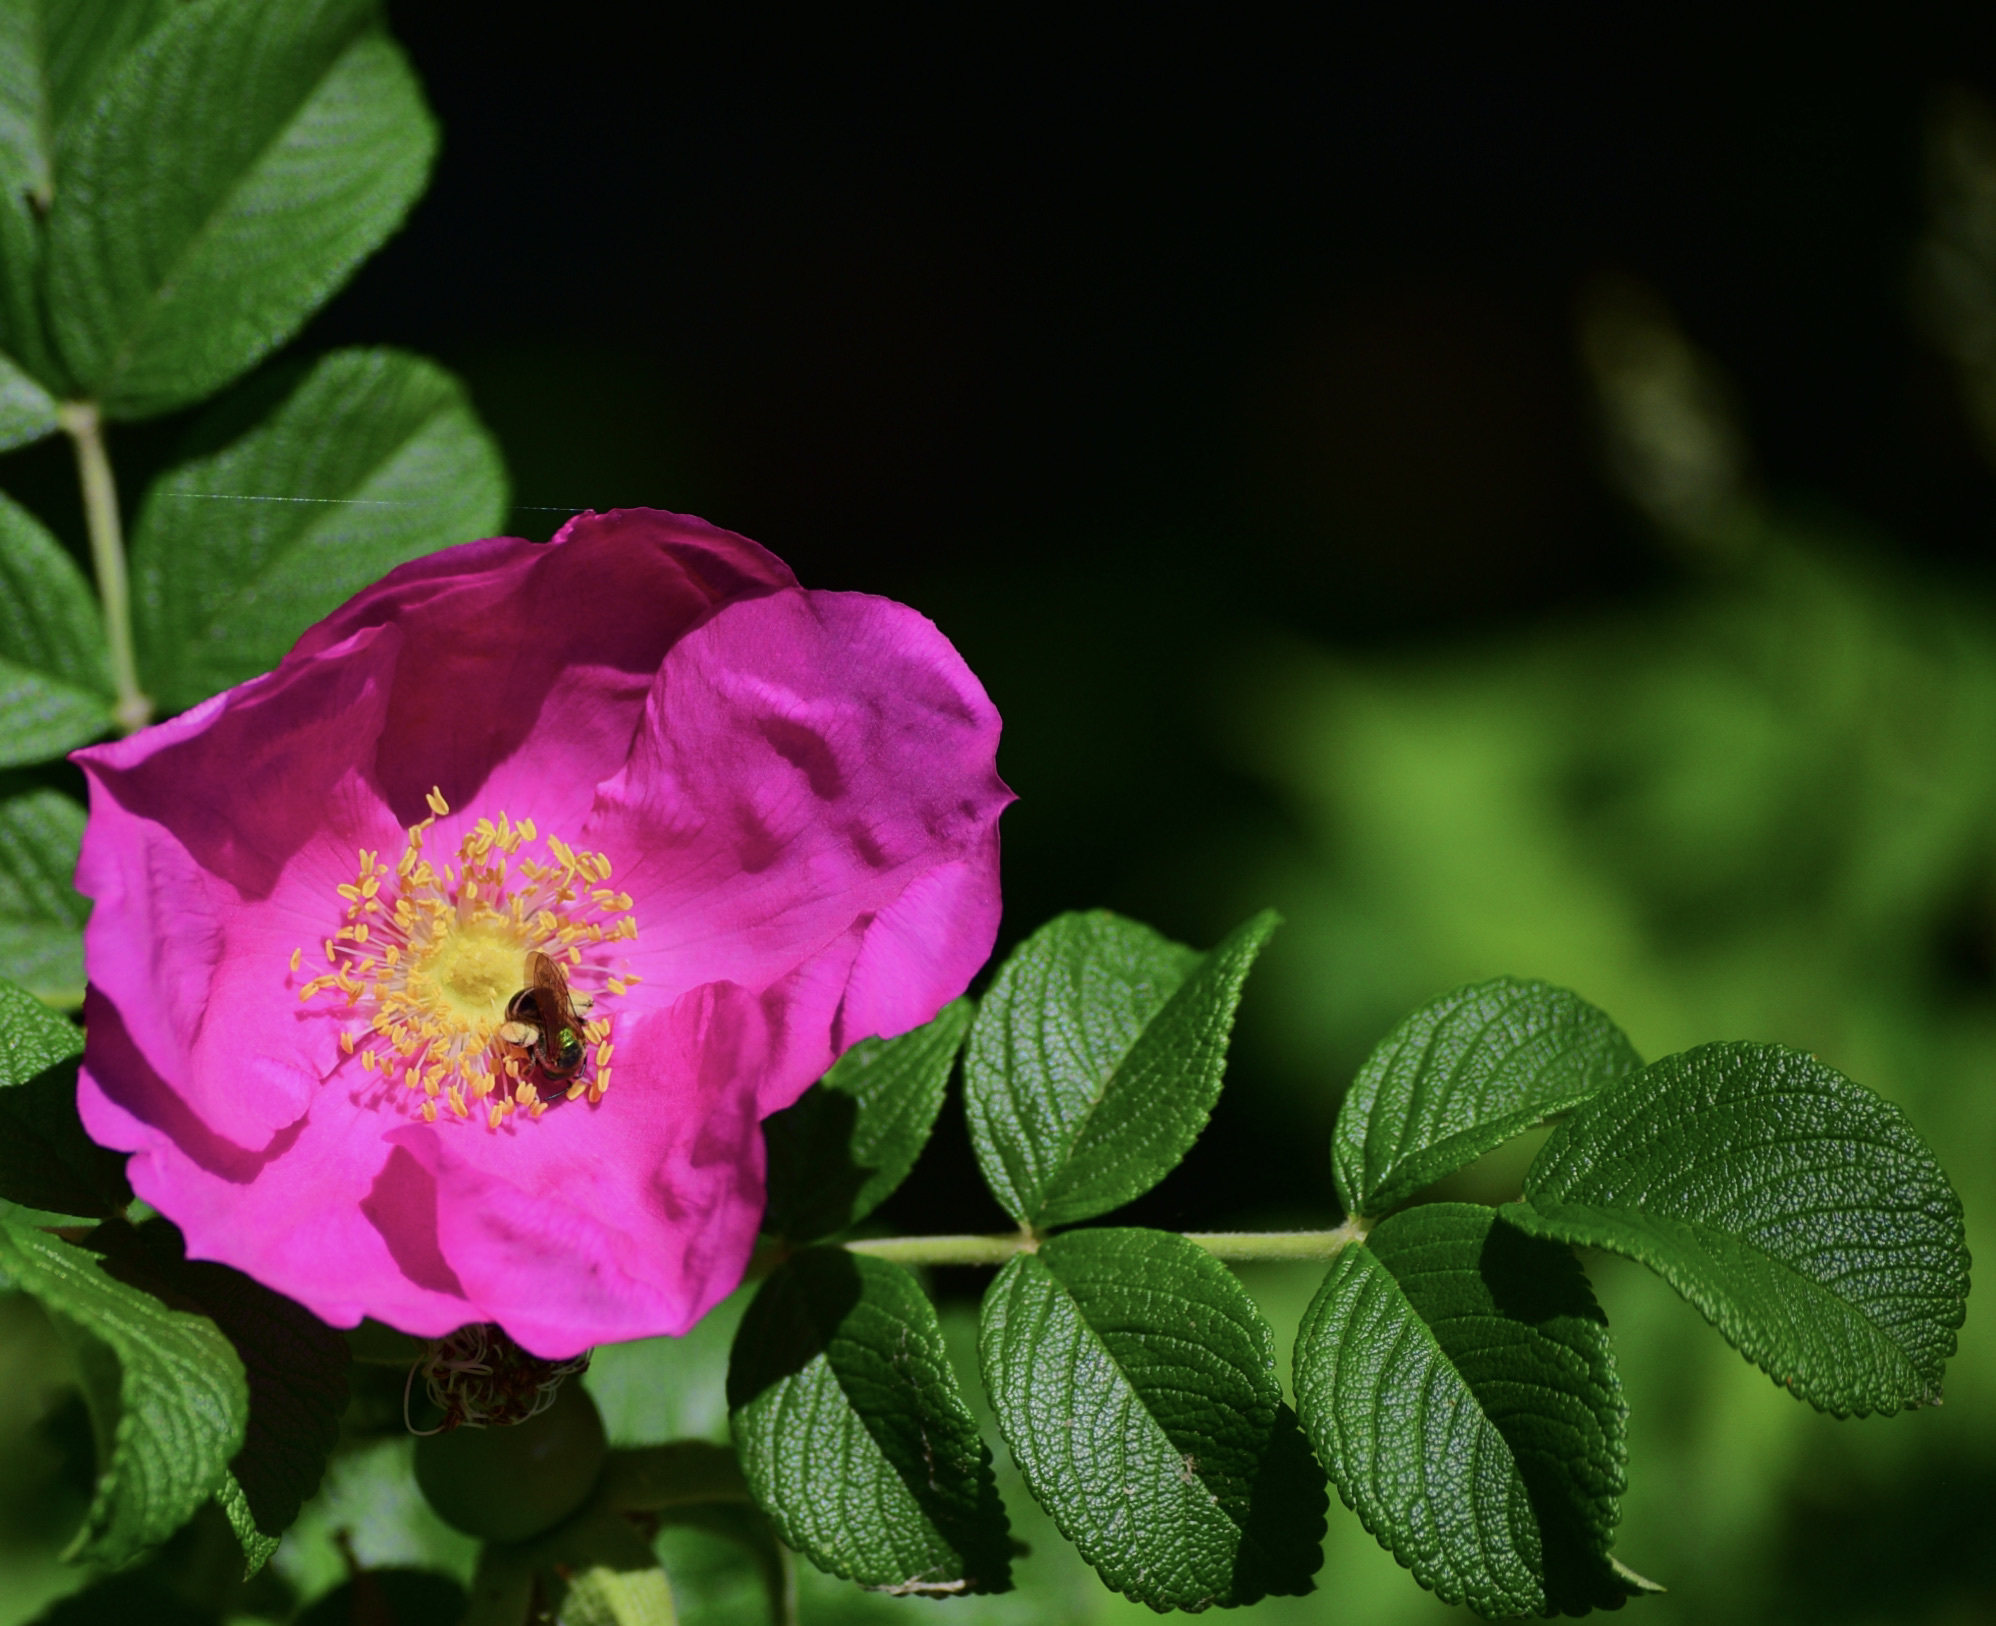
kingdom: Animalia
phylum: Arthropoda
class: Insecta
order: Hymenoptera
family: Halictidae
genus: Agapostemon
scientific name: Agapostemon virescens
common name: Bicolored striped sweat bee
